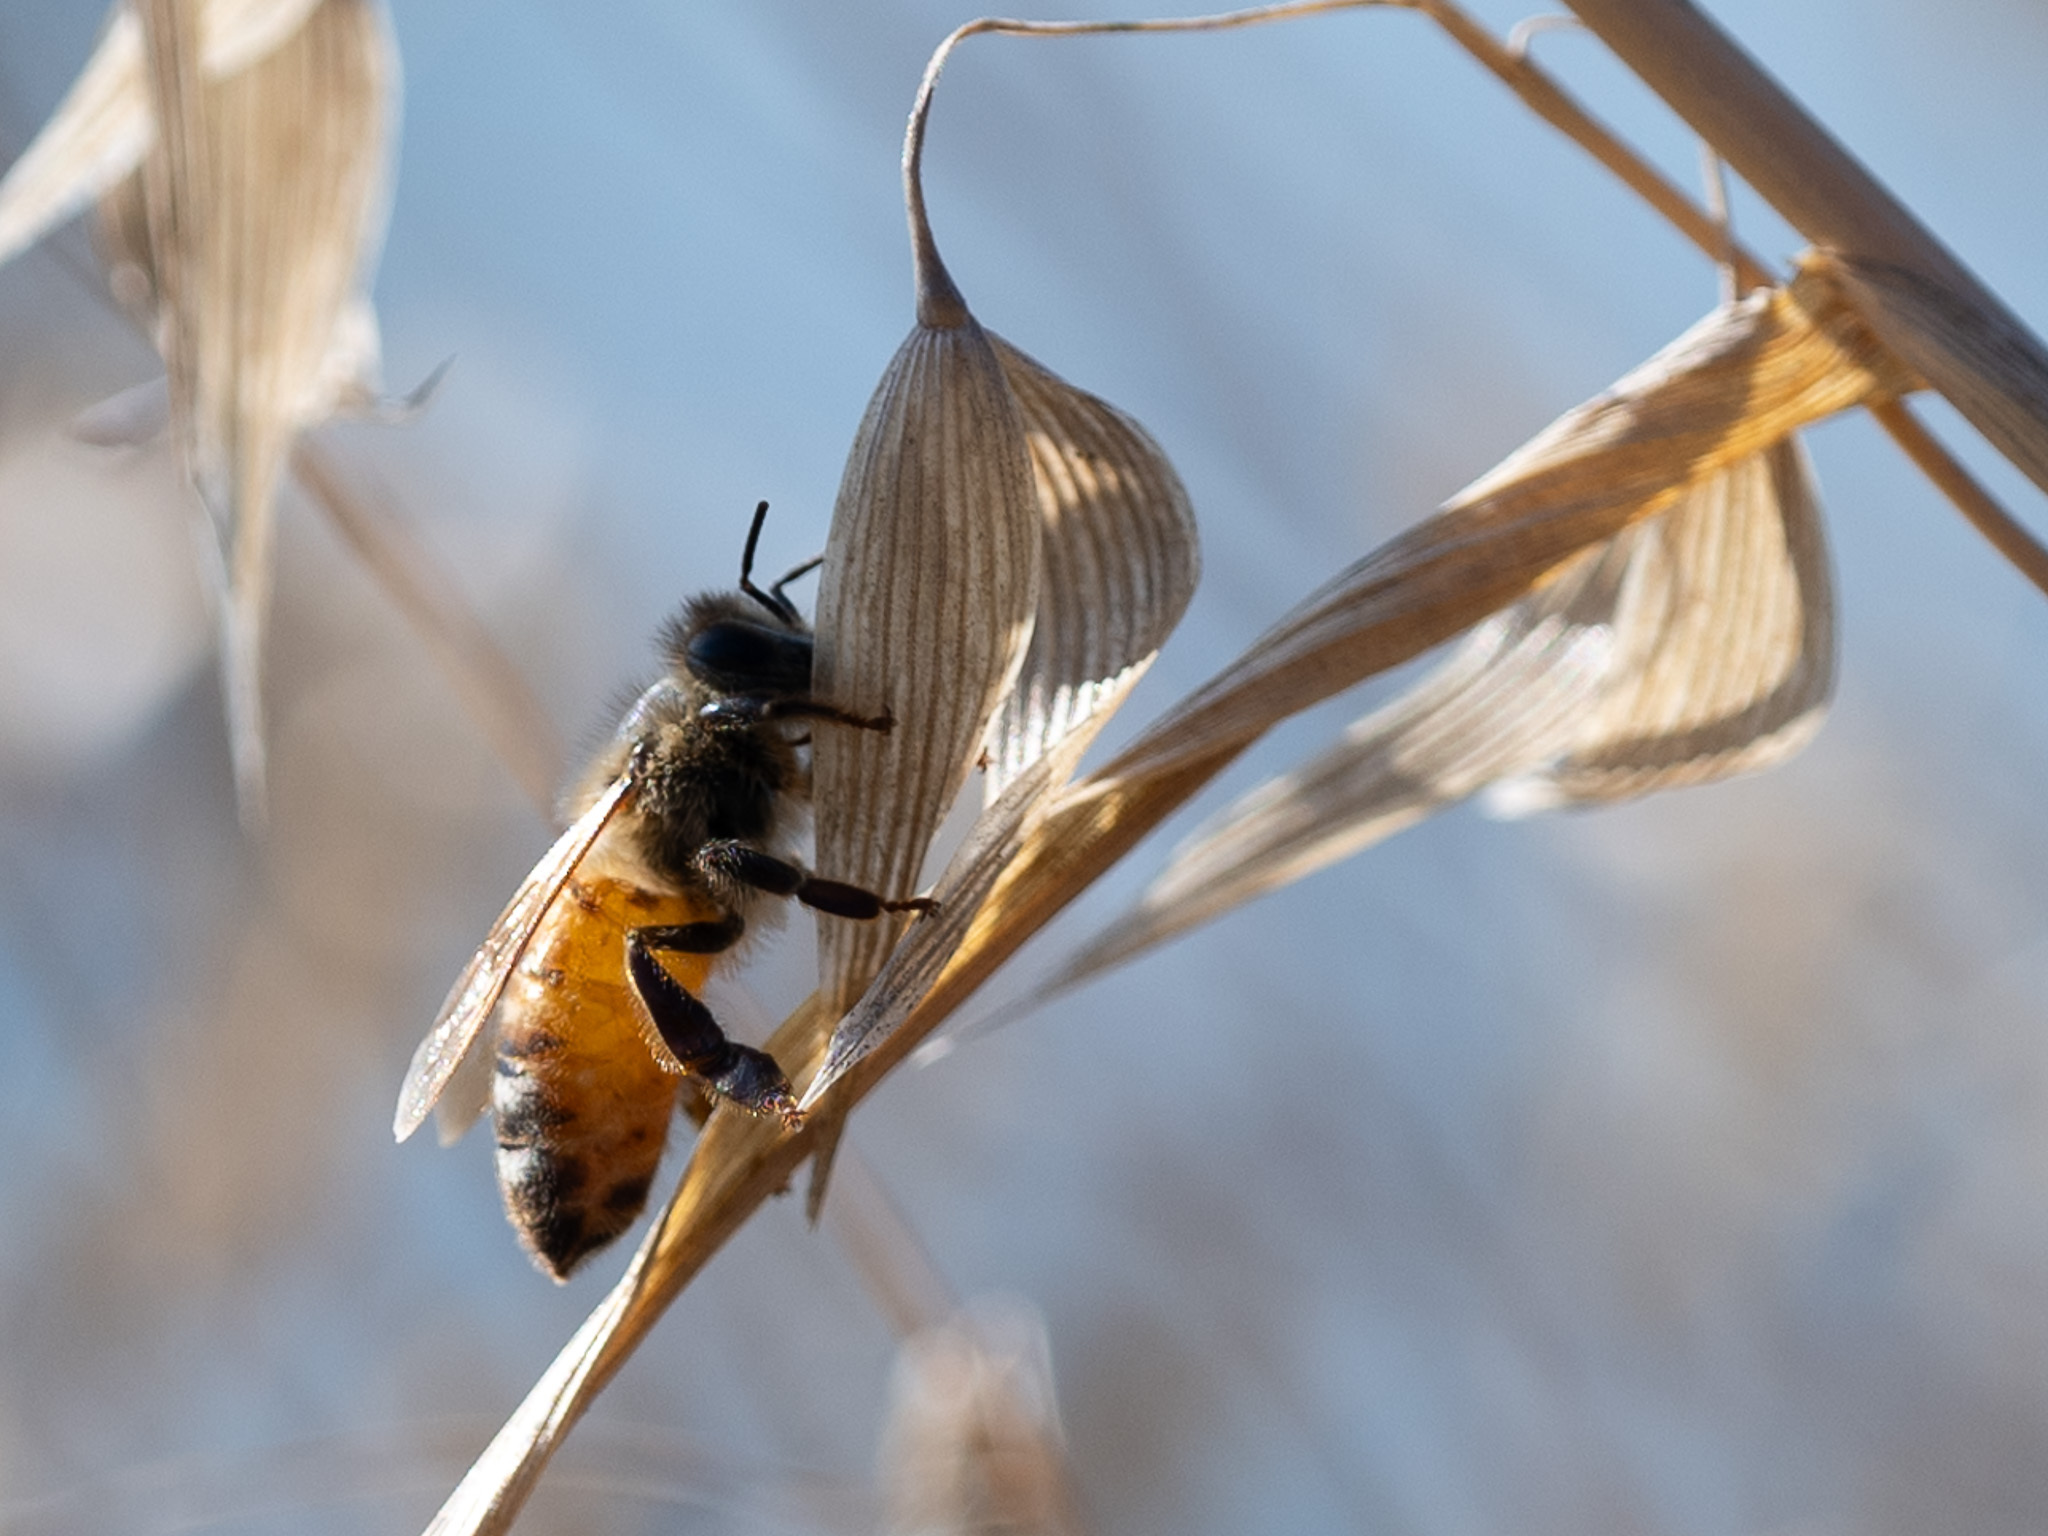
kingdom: Animalia
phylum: Arthropoda
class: Insecta
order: Hymenoptera
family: Apidae
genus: Apis
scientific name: Apis mellifera
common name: Honey bee
